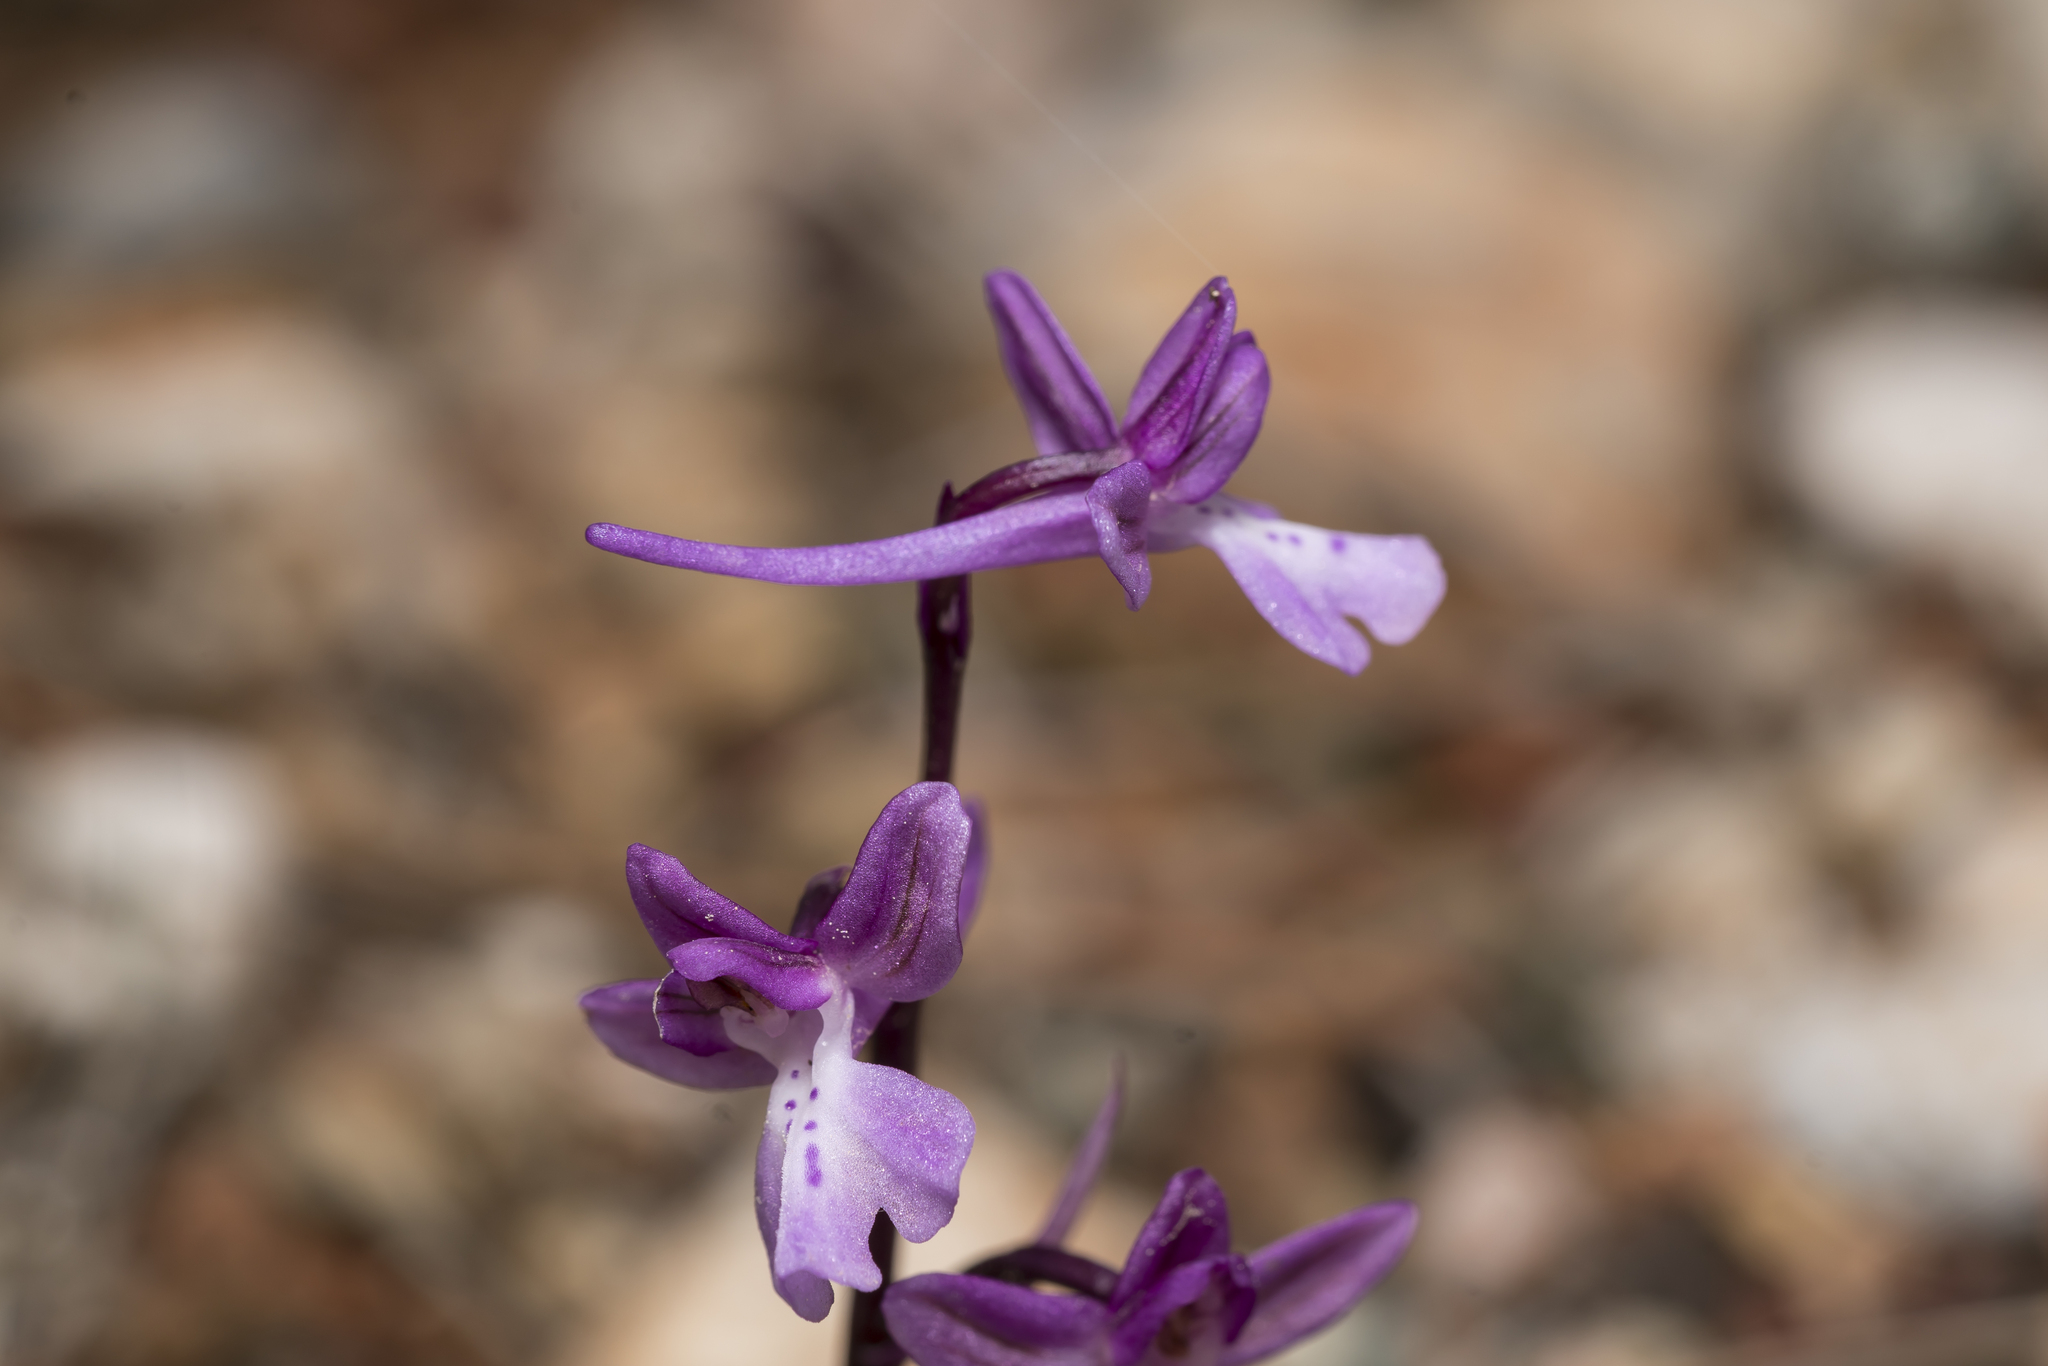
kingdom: Plantae
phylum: Tracheophyta
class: Liliopsida
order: Asparagales
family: Orchidaceae
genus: Orchis
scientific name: Orchis anatolica
